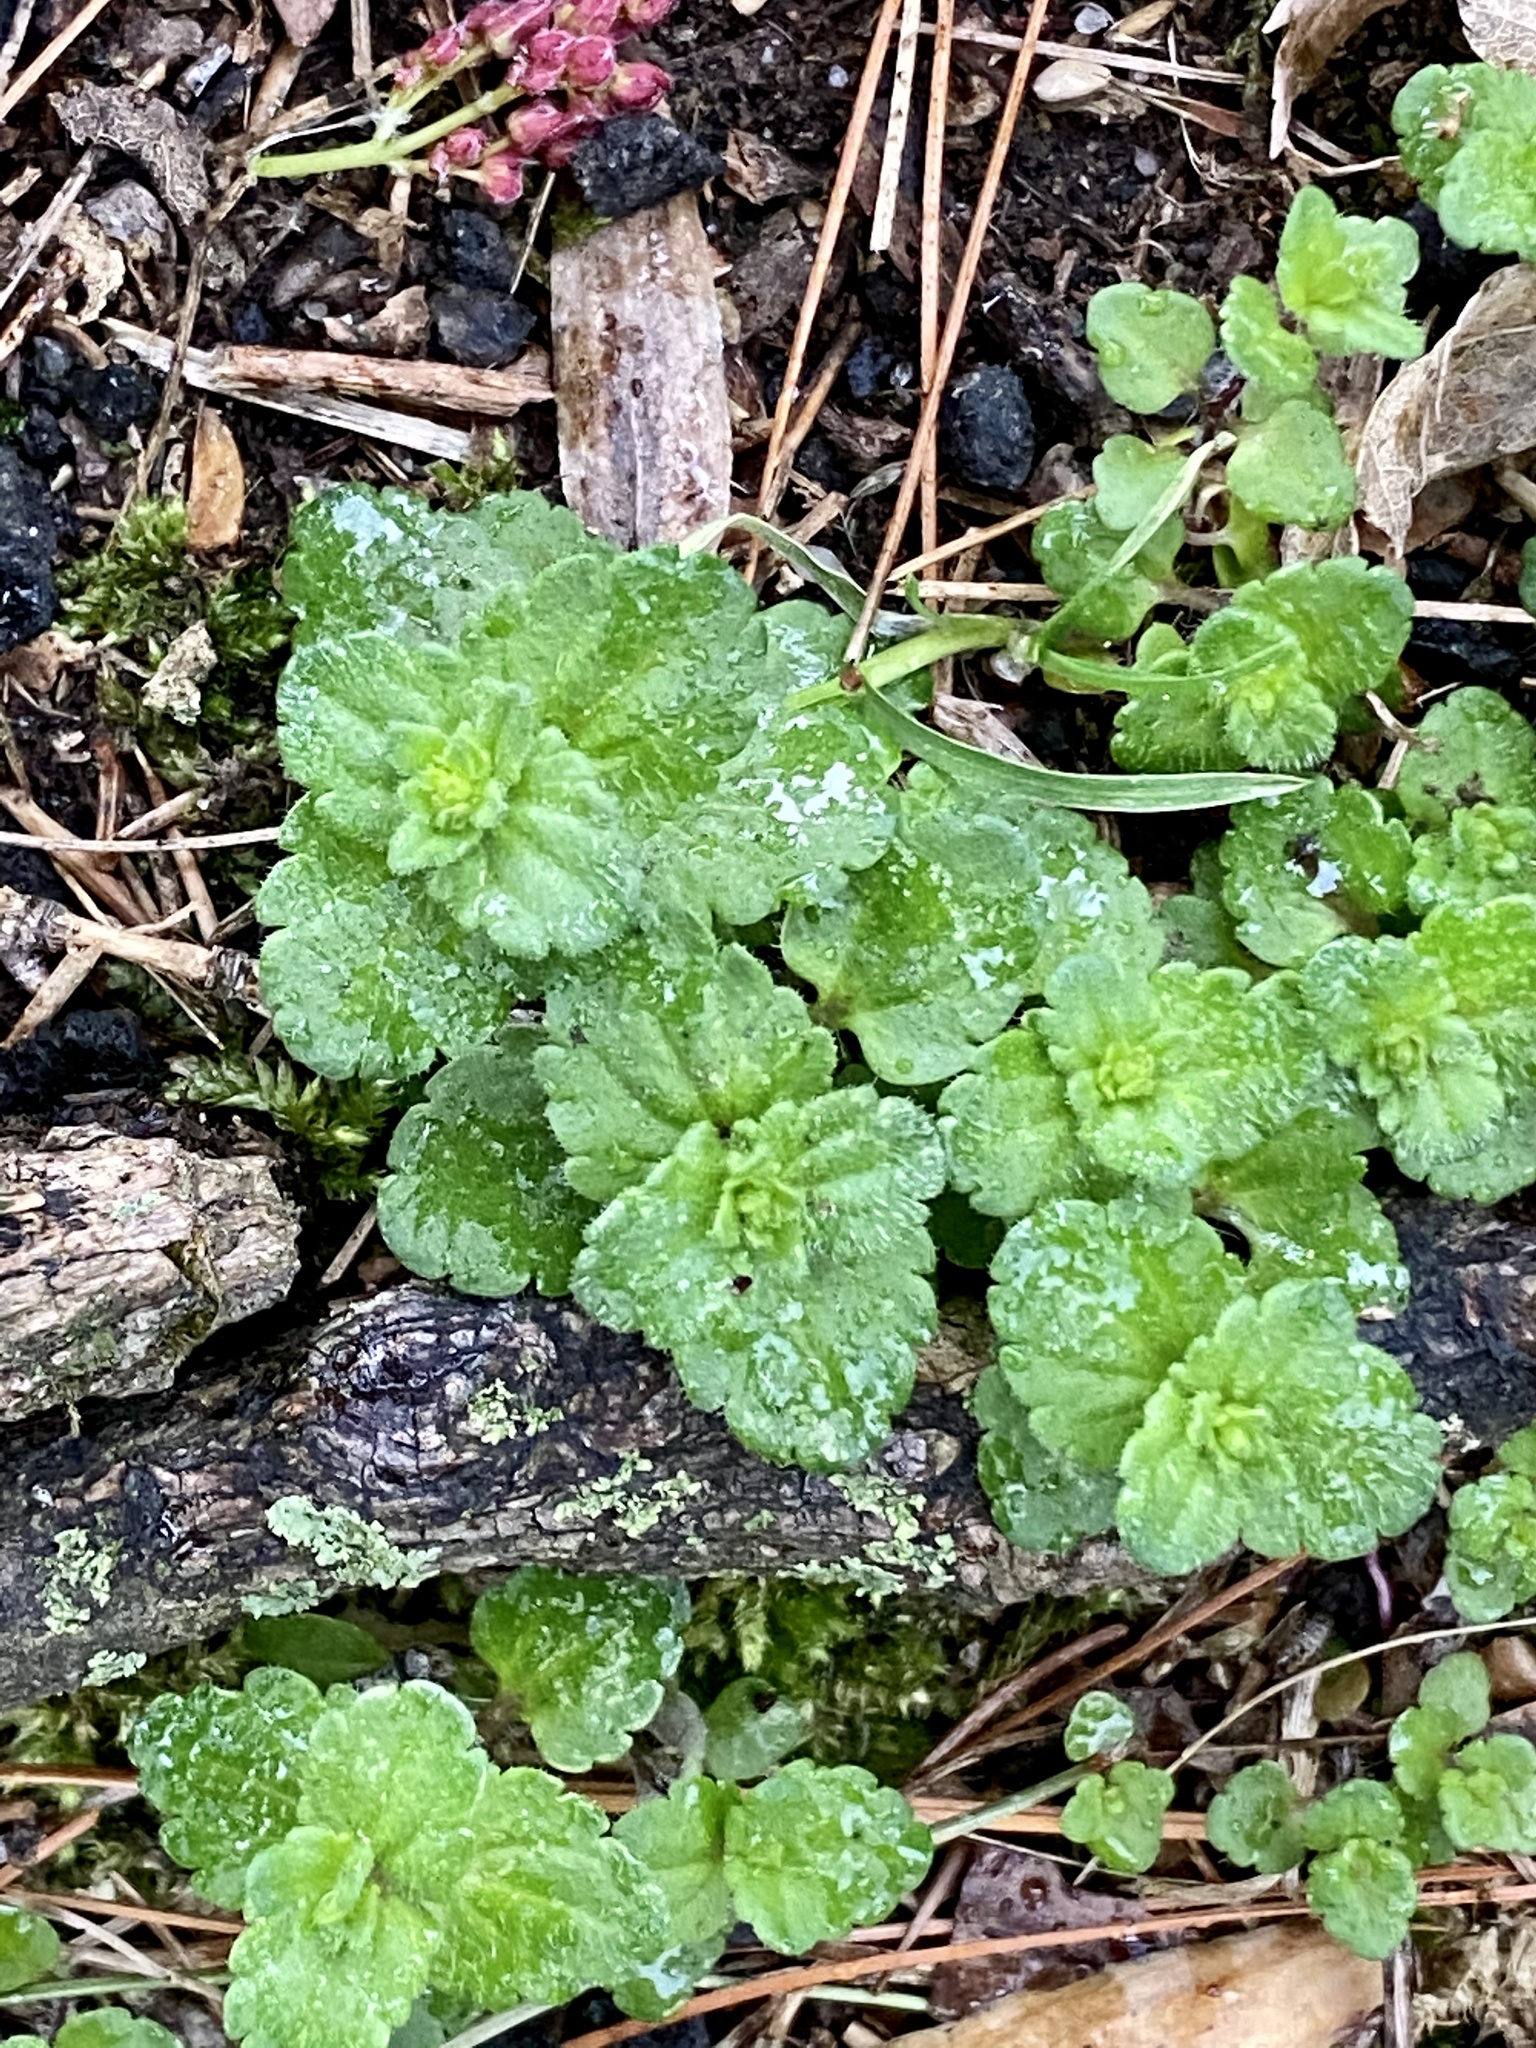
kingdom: Plantae
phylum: Tracheophyta
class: Magnoliopsida
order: Lamiales
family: Plantaginaceae
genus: Veronica
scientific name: Veronica arvensis
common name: Corn speedwell
